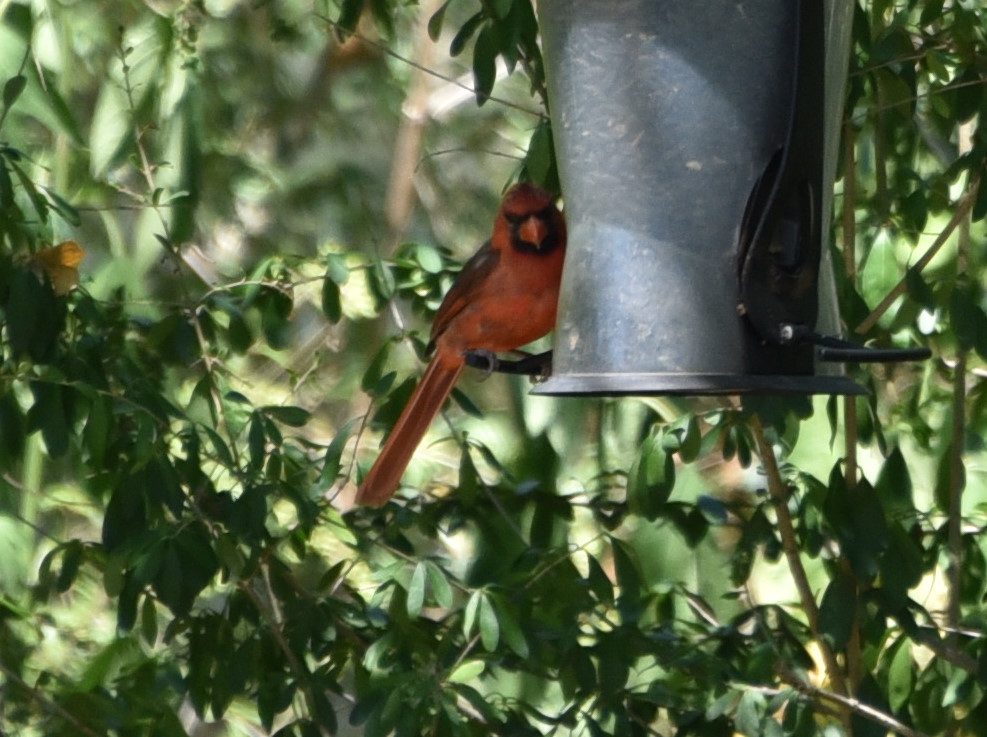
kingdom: Animalia
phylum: Chordata
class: Aves
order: Passeriformes
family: Cardinalidae
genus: Cardinalis
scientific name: Cardinalis cardinalis
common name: Northern cardinal
